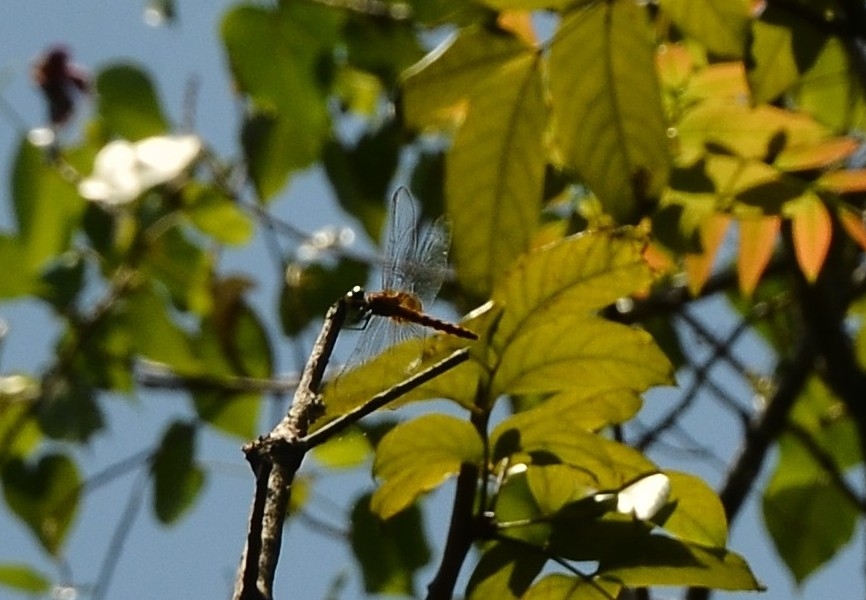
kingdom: Animalia
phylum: Arthropoda
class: Insecta
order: Odonata
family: Libellulidae
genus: Urothemis
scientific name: Urothemis signata
